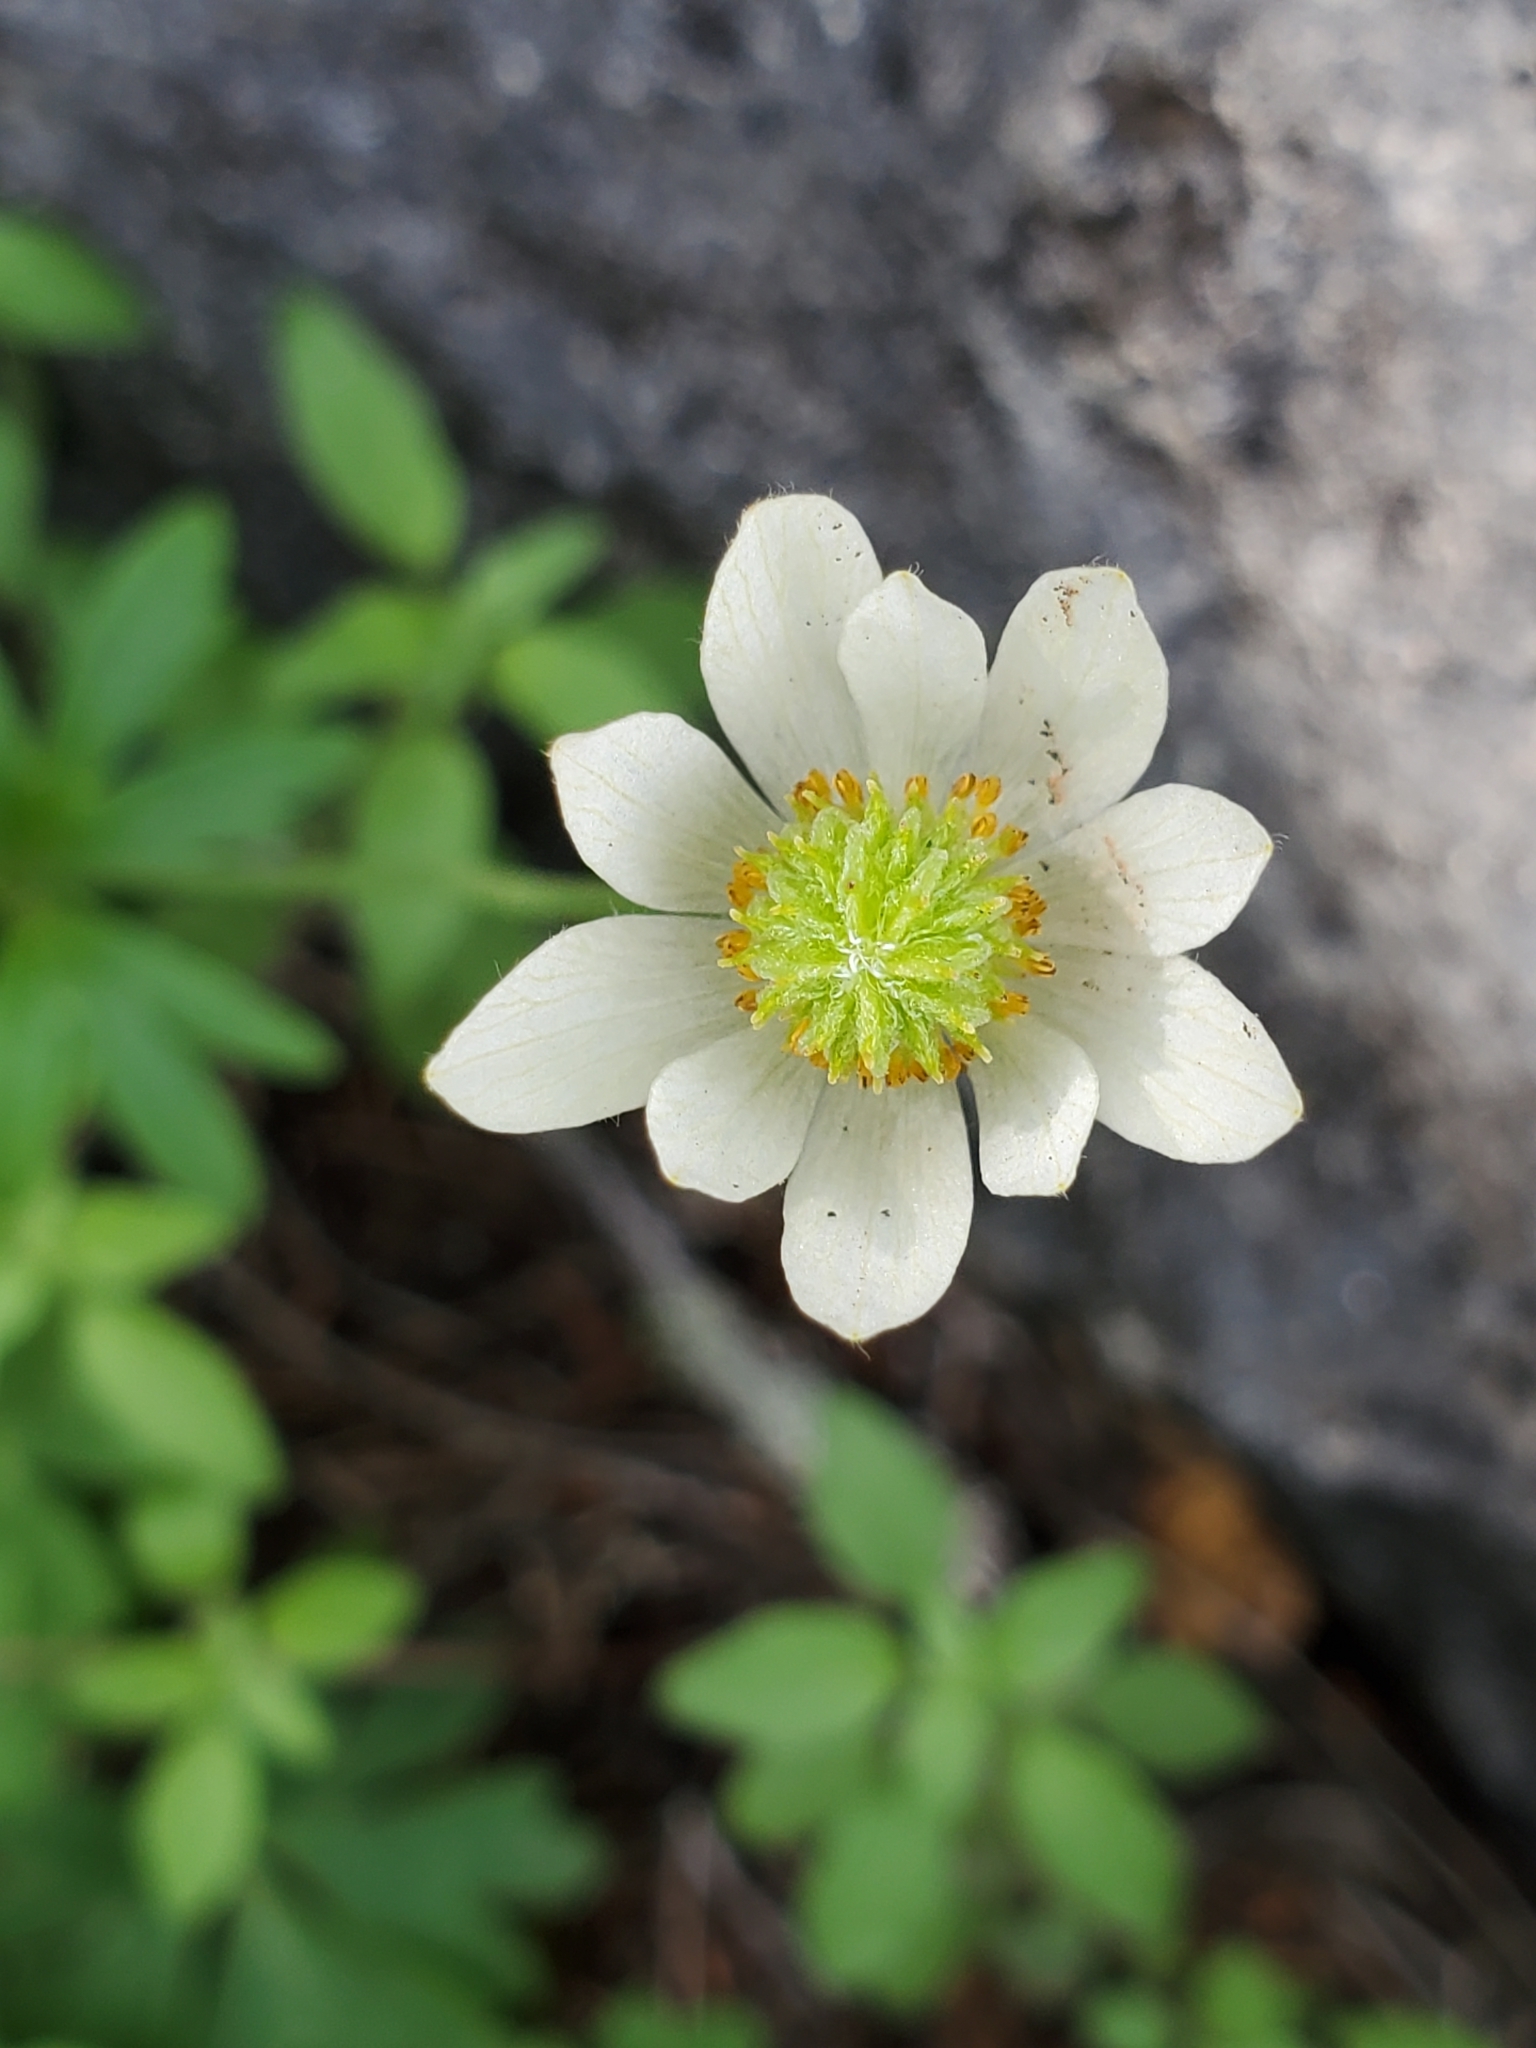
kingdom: Plantae
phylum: Tracheophyta
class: Magnoliopsida
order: Ranunculales
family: Ranunculaceae
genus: Anemone
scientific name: Anemone edwardsiana
